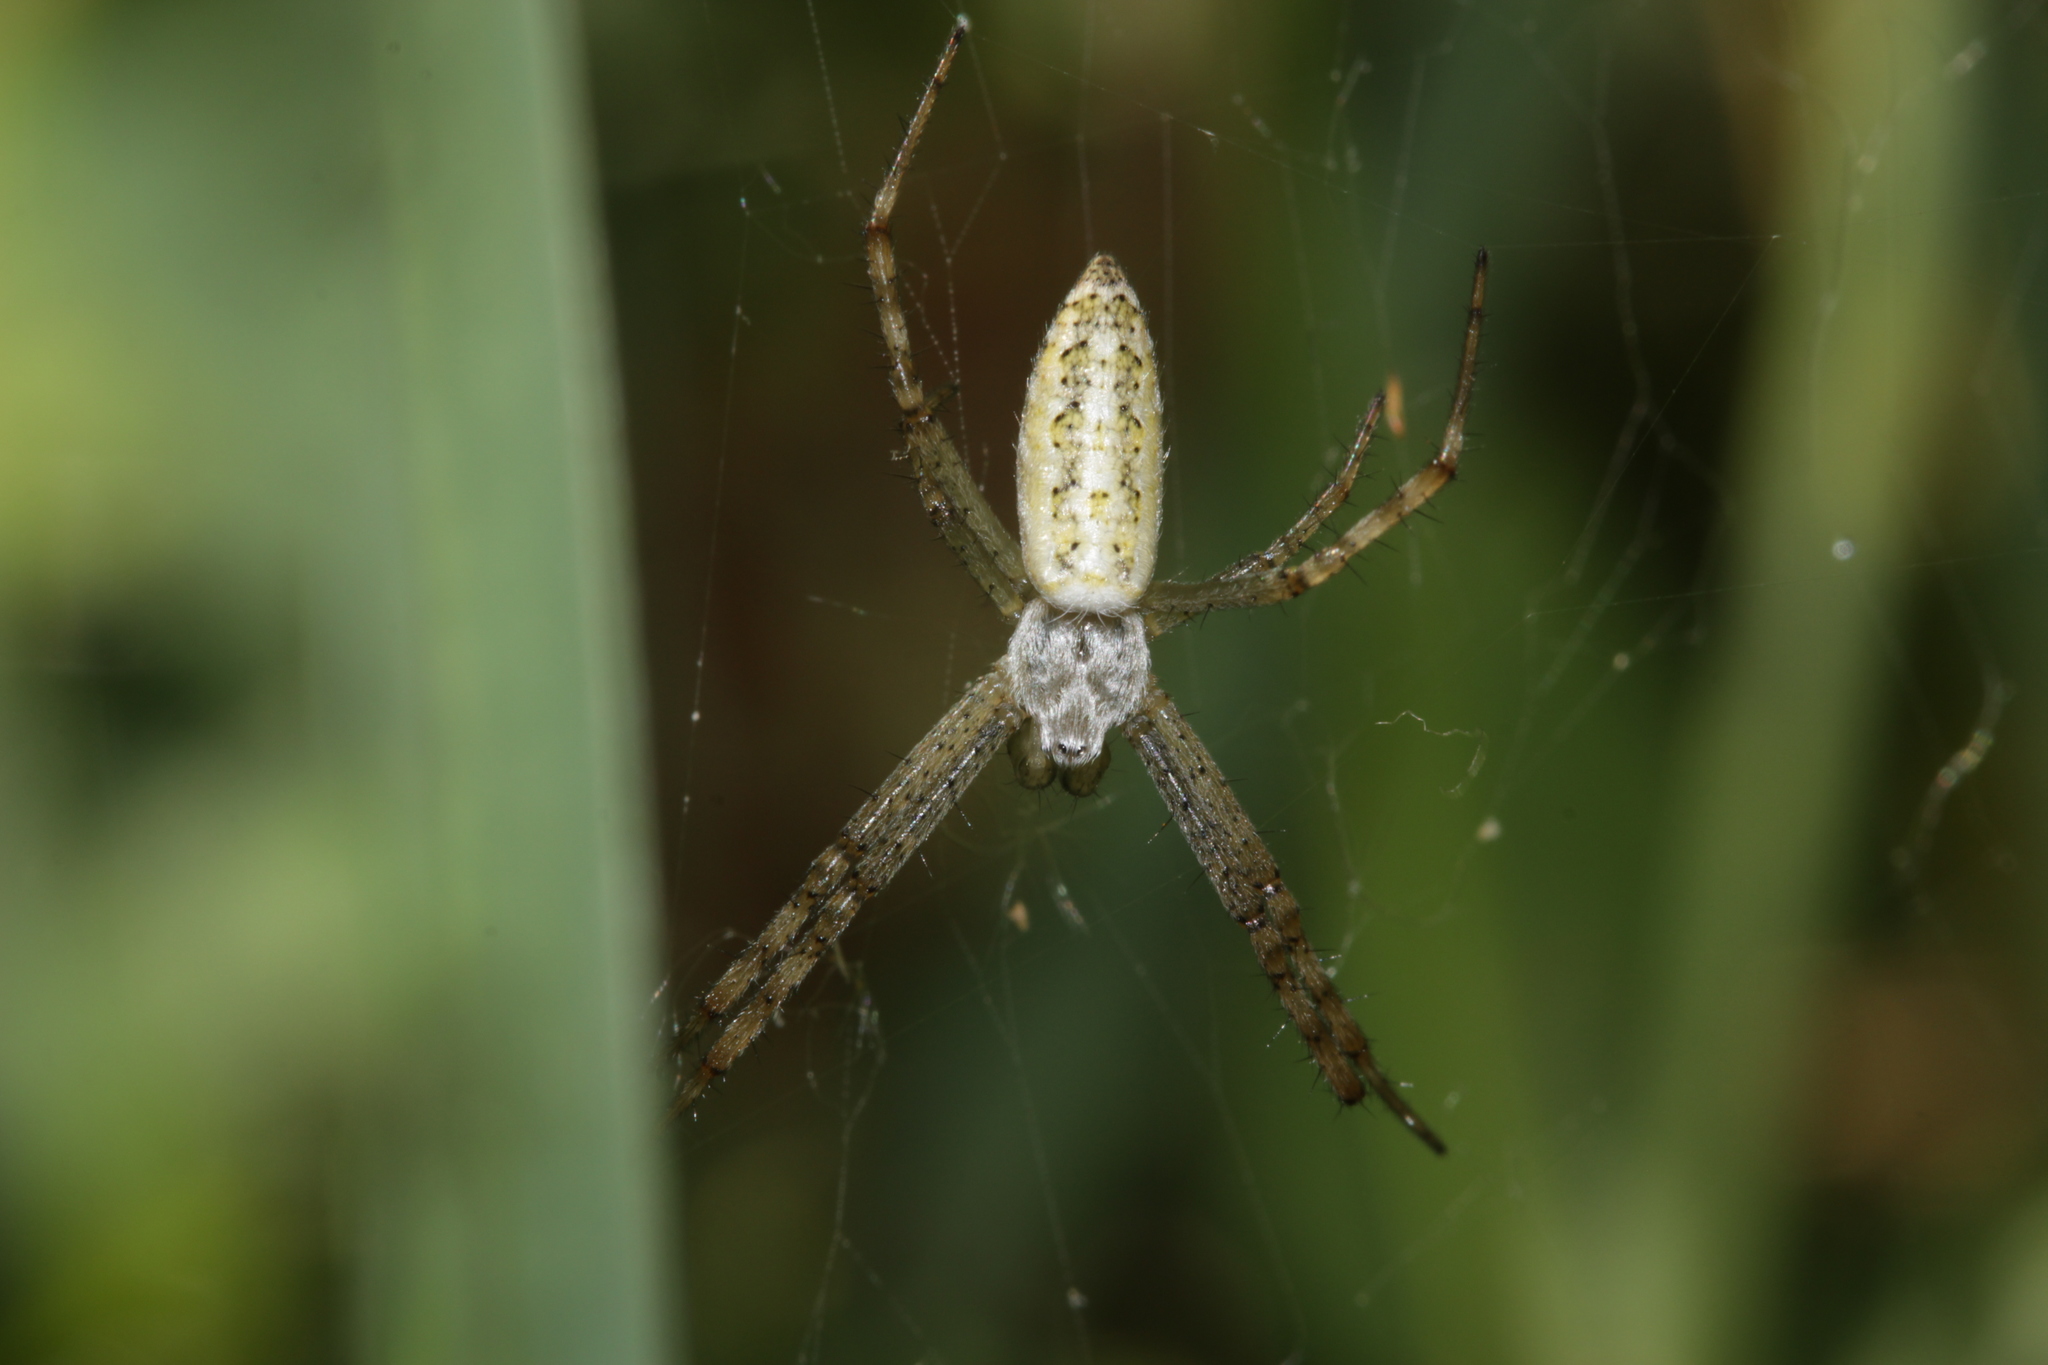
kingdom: Animalia
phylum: Arthropoda
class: Arachnida
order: Araneae
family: Araneidae
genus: Argiope
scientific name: Argiope bruennichi
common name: Wasp spider
